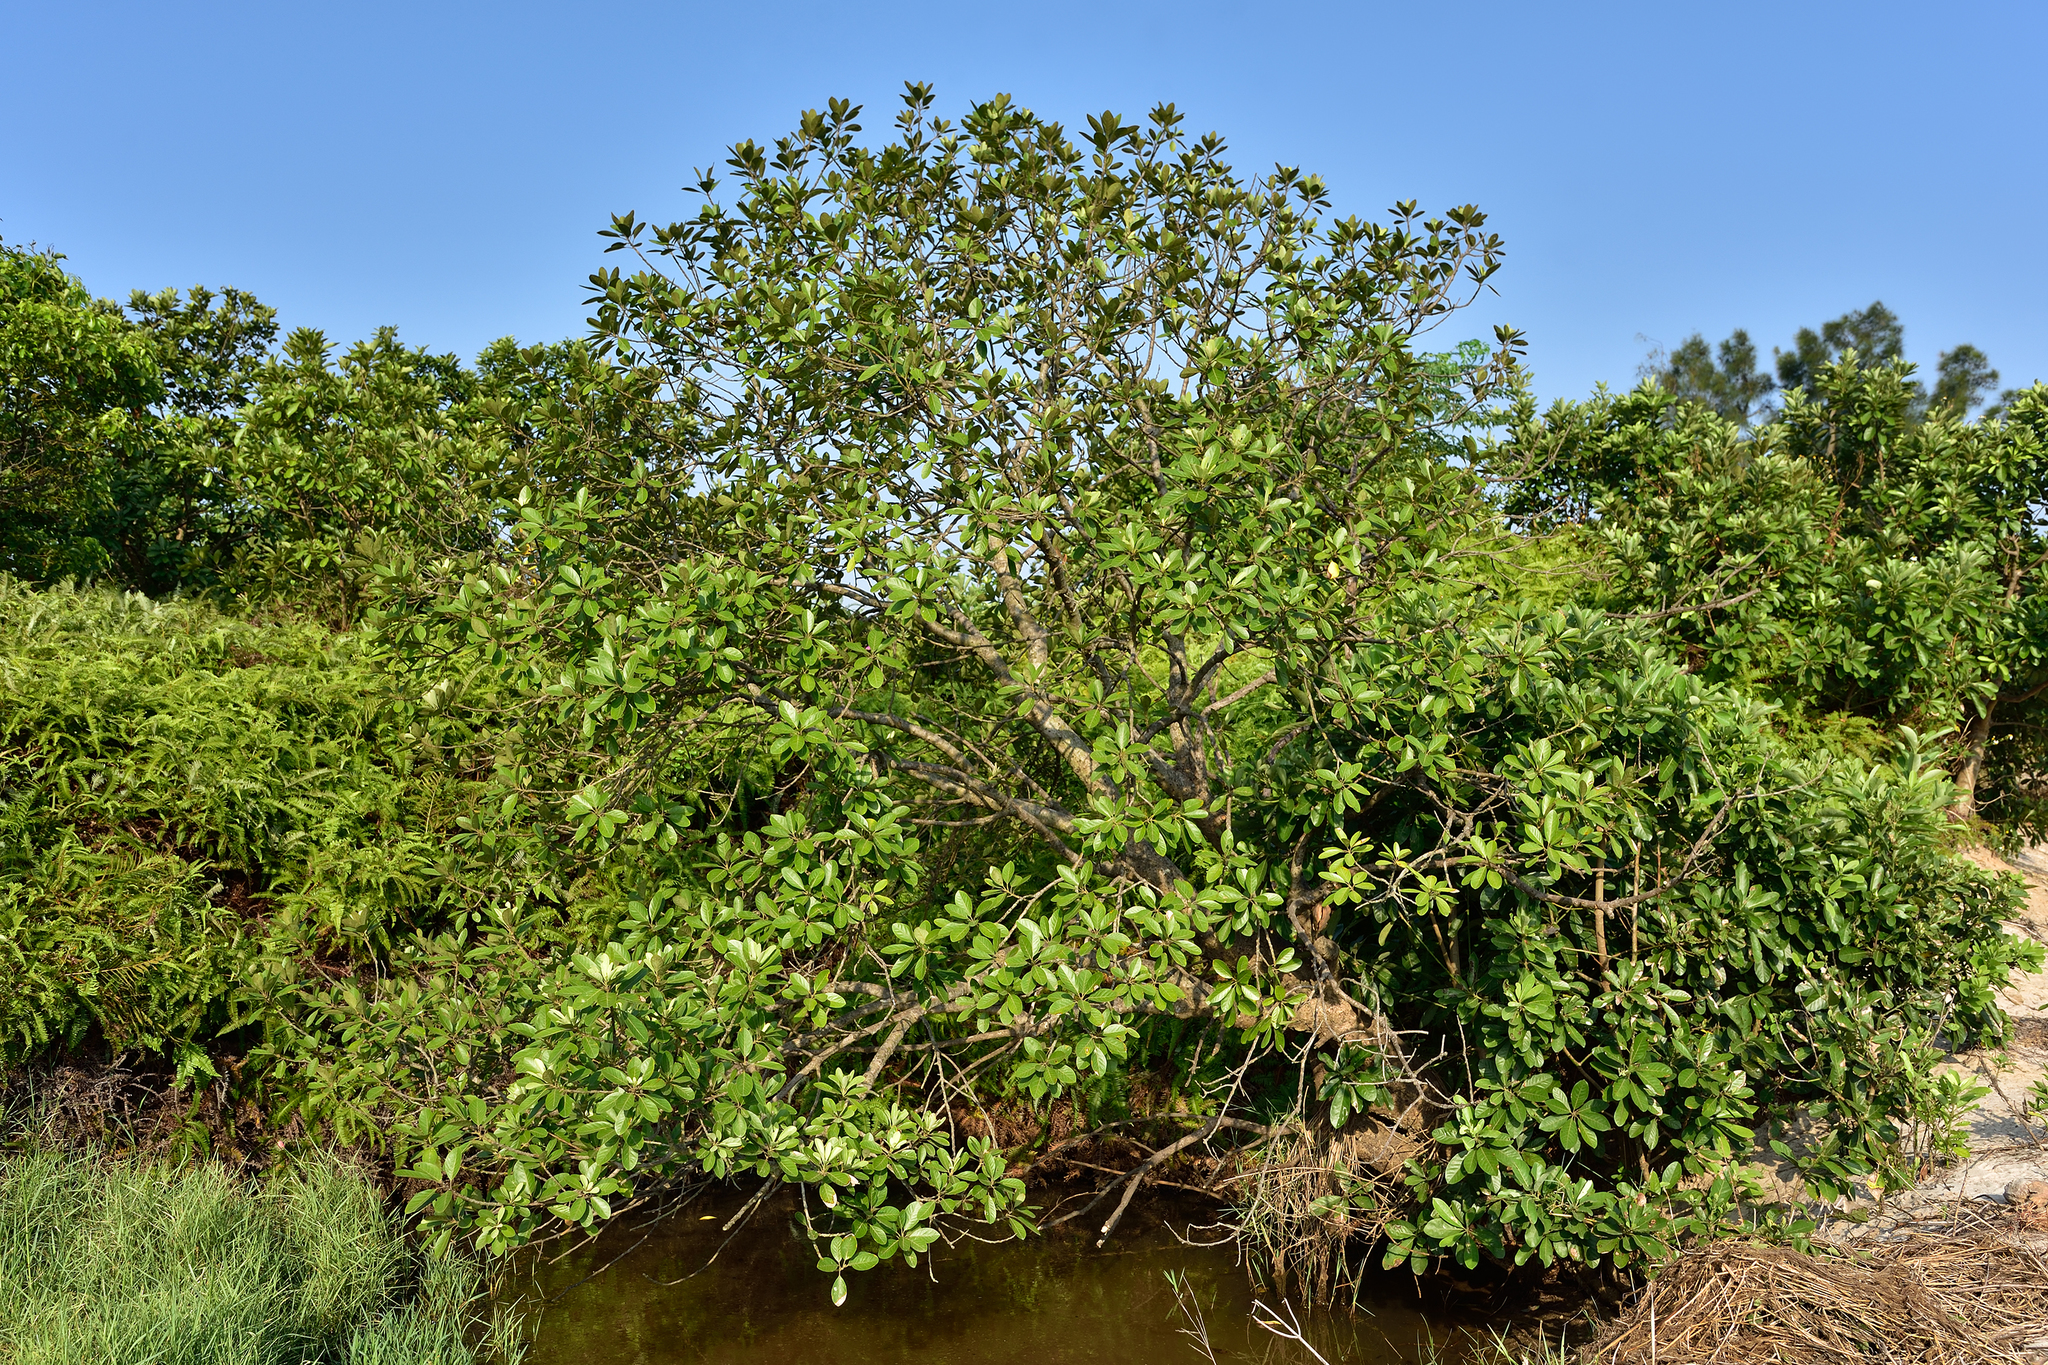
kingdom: Plantae
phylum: Tracheophyta
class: Magnoliopsida
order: Laurales
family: Lauraceae
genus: Litsea
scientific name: Litsea glutinosa
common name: Indian-laurel
